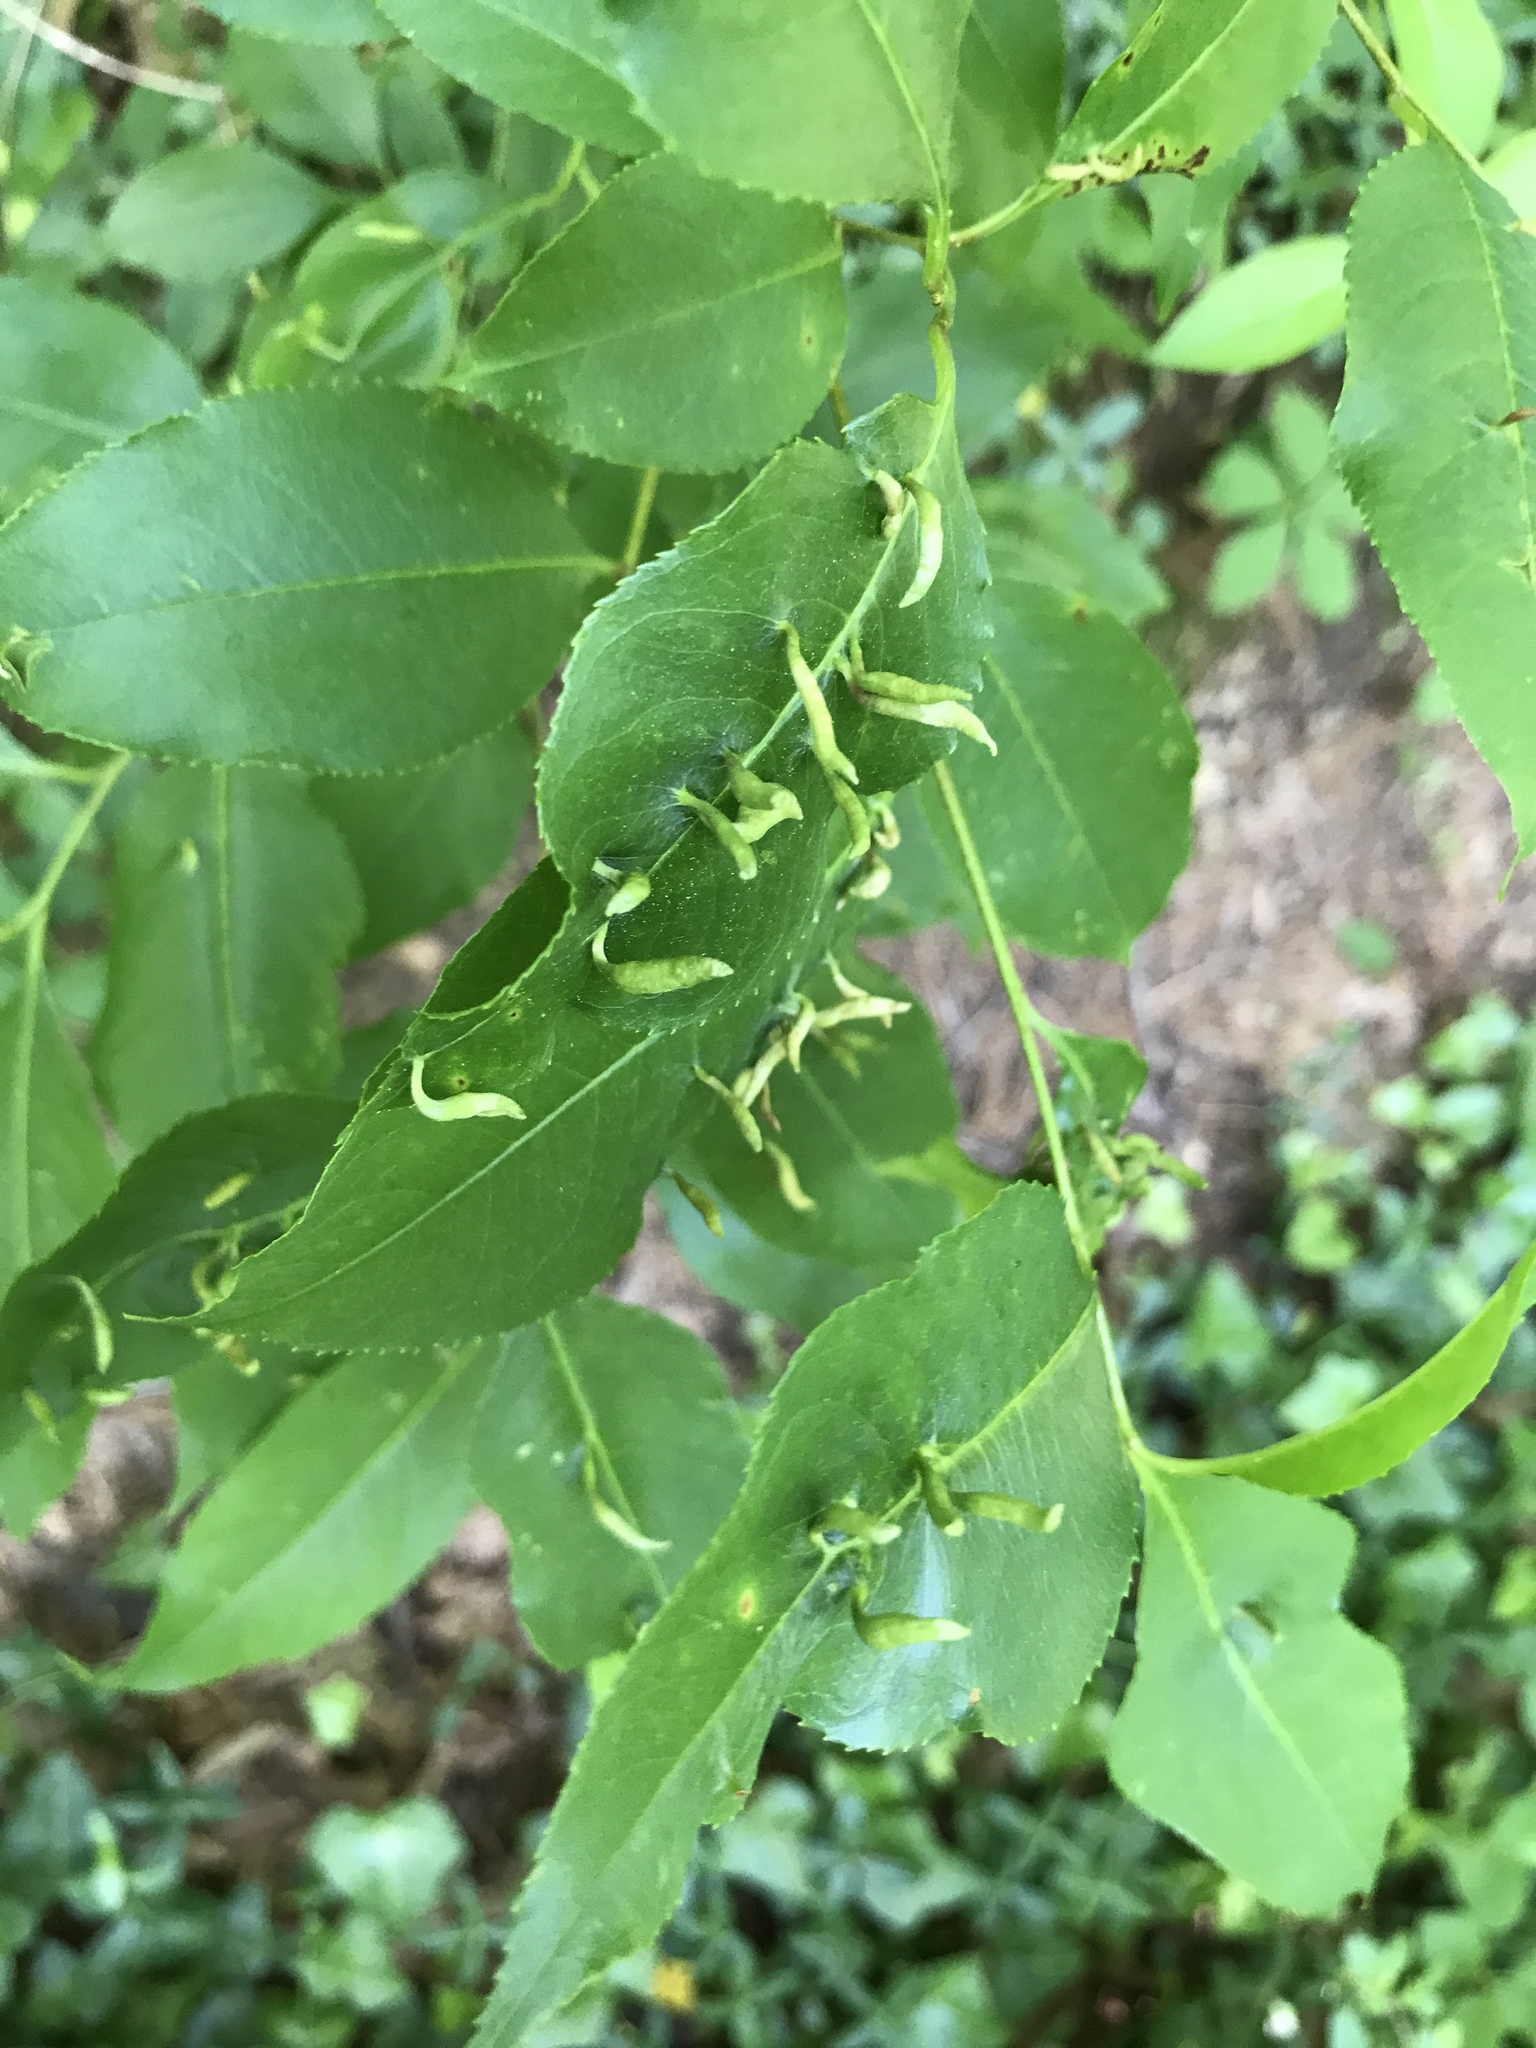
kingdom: Animalia
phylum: Arthropoda
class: Arachnida
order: Trombidiformes
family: Eriophyidae
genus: Eriophyes
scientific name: Eriophyes
